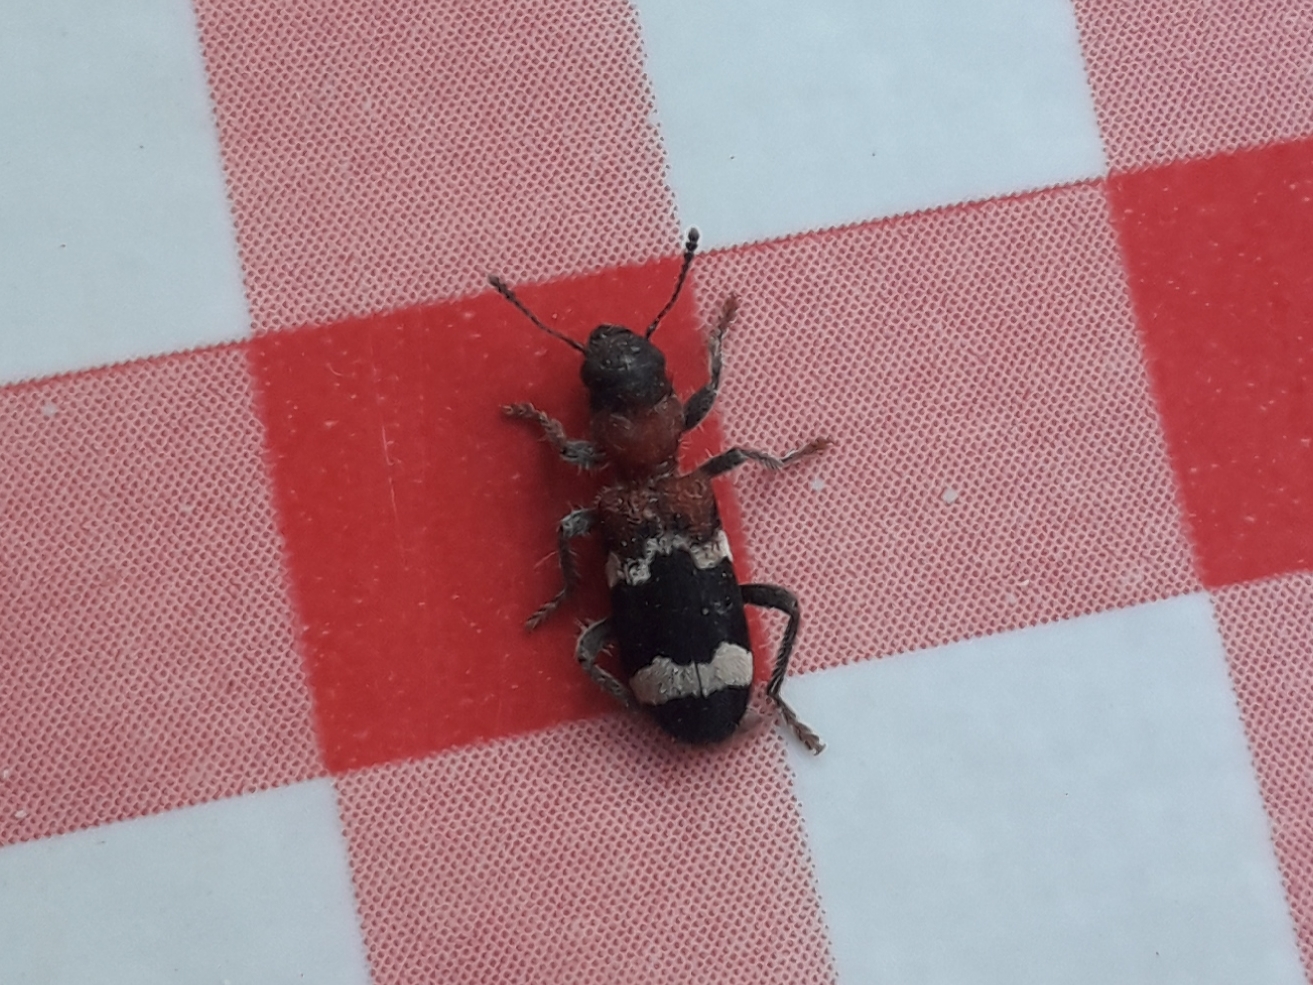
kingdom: Animalia
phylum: Arthropoda
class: Insecta
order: Coleoptera
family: Cleridae
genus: Thanasimus
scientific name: Thanasimus formicarius
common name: Ant beetle
